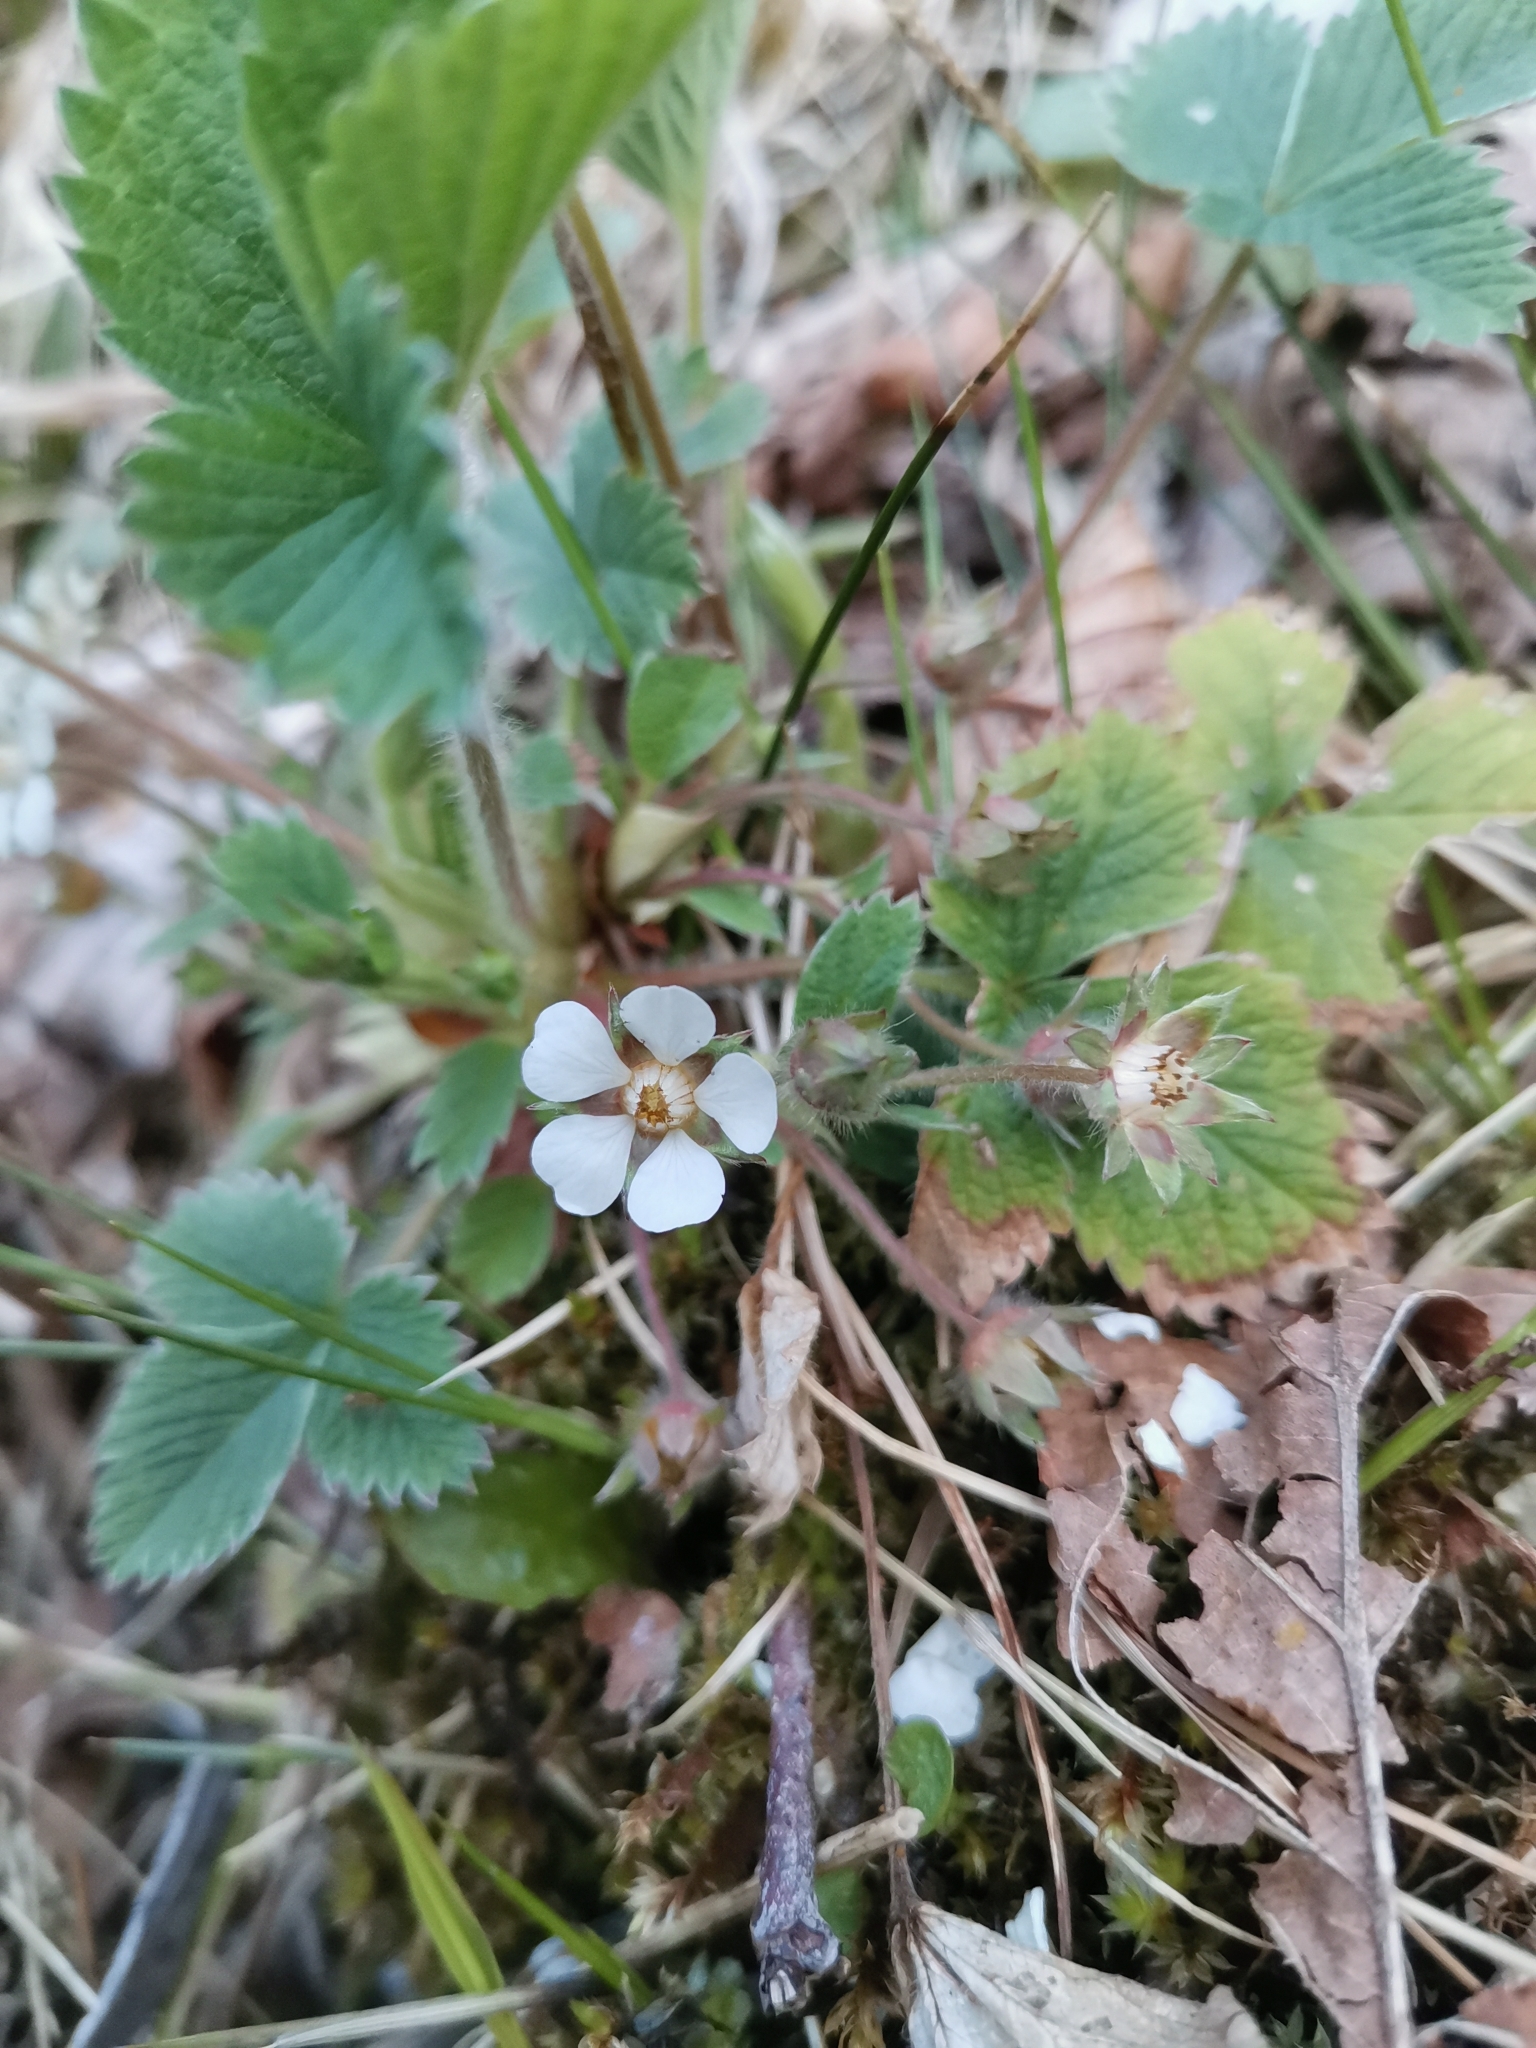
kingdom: Plantae
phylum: Tracheophyta
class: Magnoliopsida
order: Rosales
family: Rosaceae
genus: Potentilla
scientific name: Potentilla carniolica
